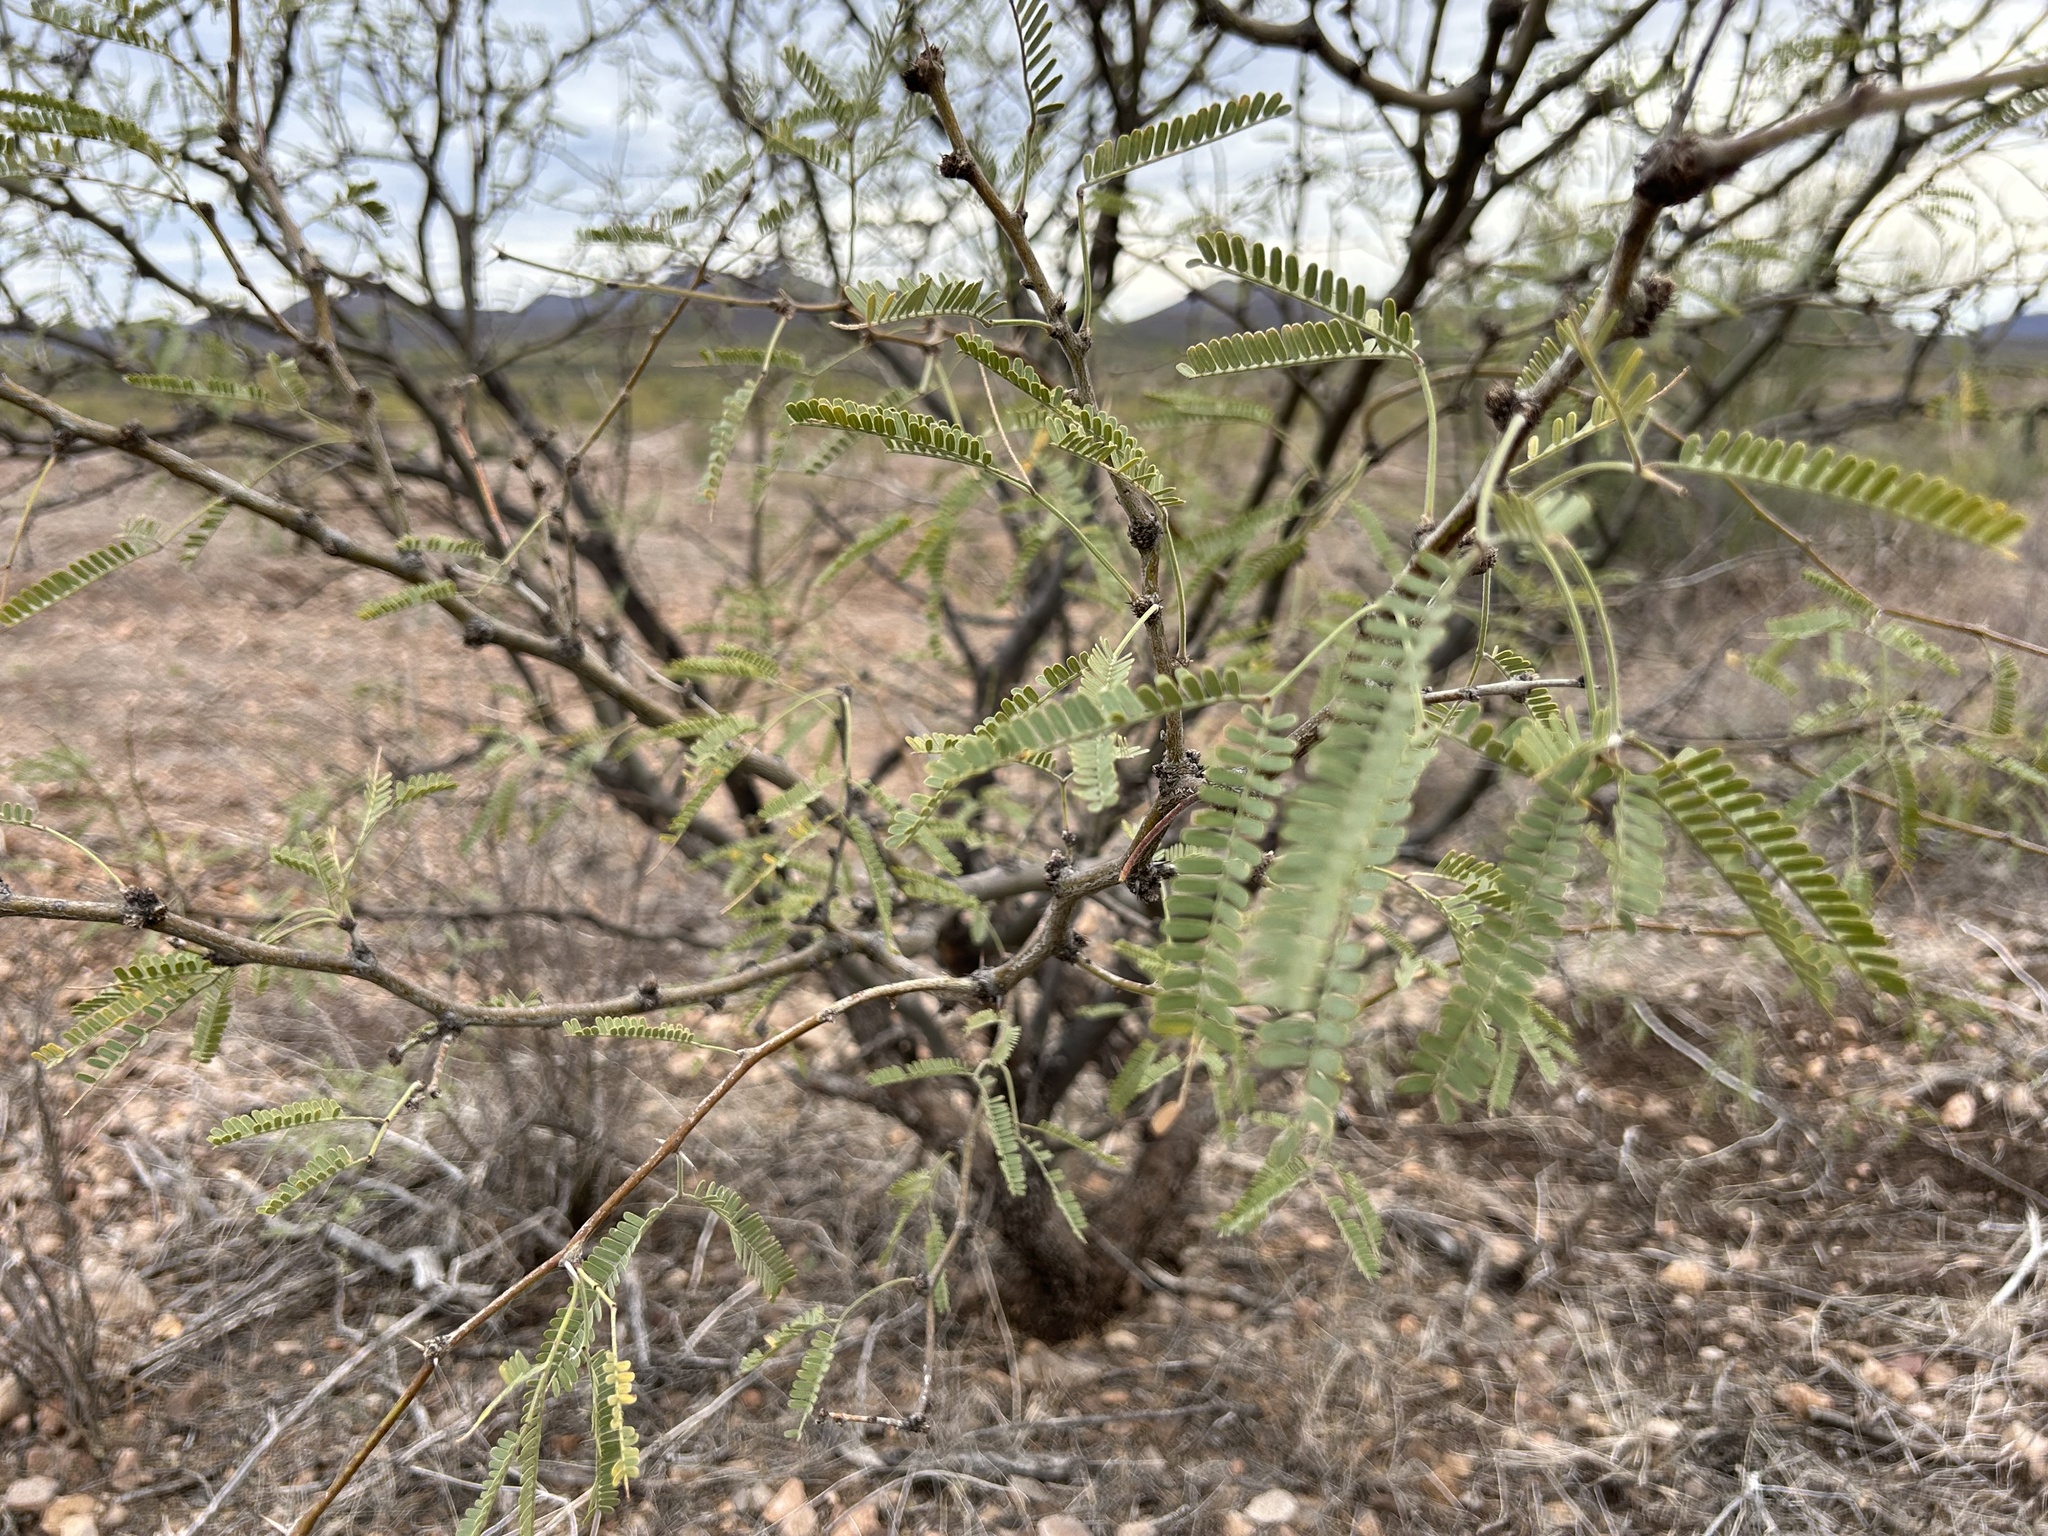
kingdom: Plantae
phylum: Tracheophyta
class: Magnoliopsida
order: Fabales
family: Fabaceae
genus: Prosopis
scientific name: Prosopis velutina
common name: Velvet mesquite
